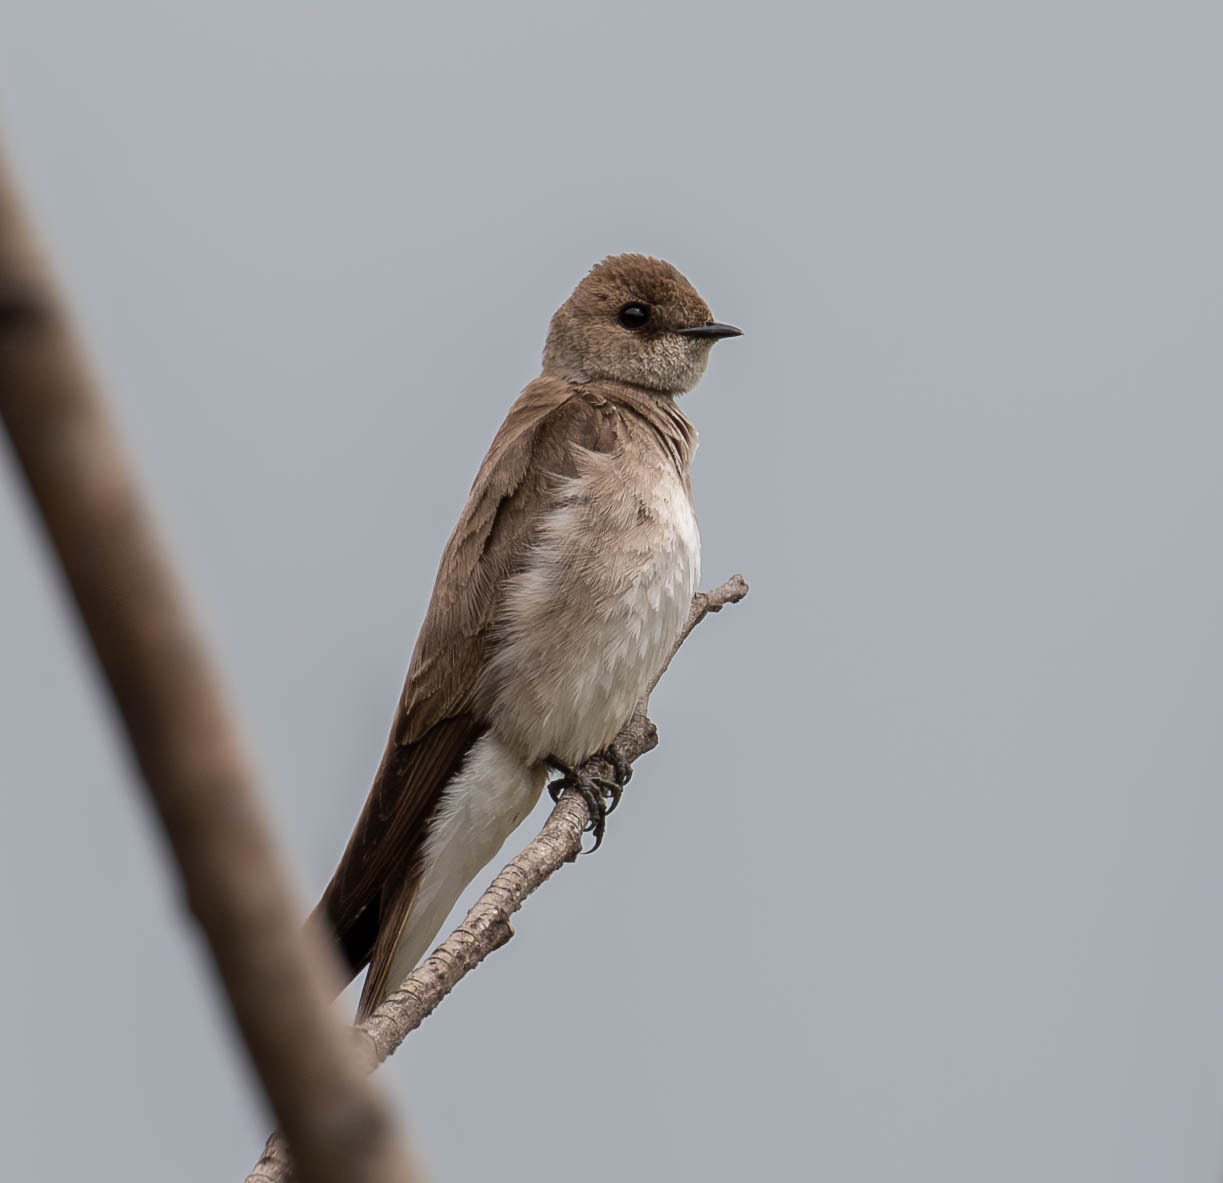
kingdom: Animalia
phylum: Chordata
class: Aves
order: Passeriformes
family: Hirundinidae
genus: Stelgidopteryx
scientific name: Stelgidopteryx serripennis
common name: Northern rough-winged swallow
